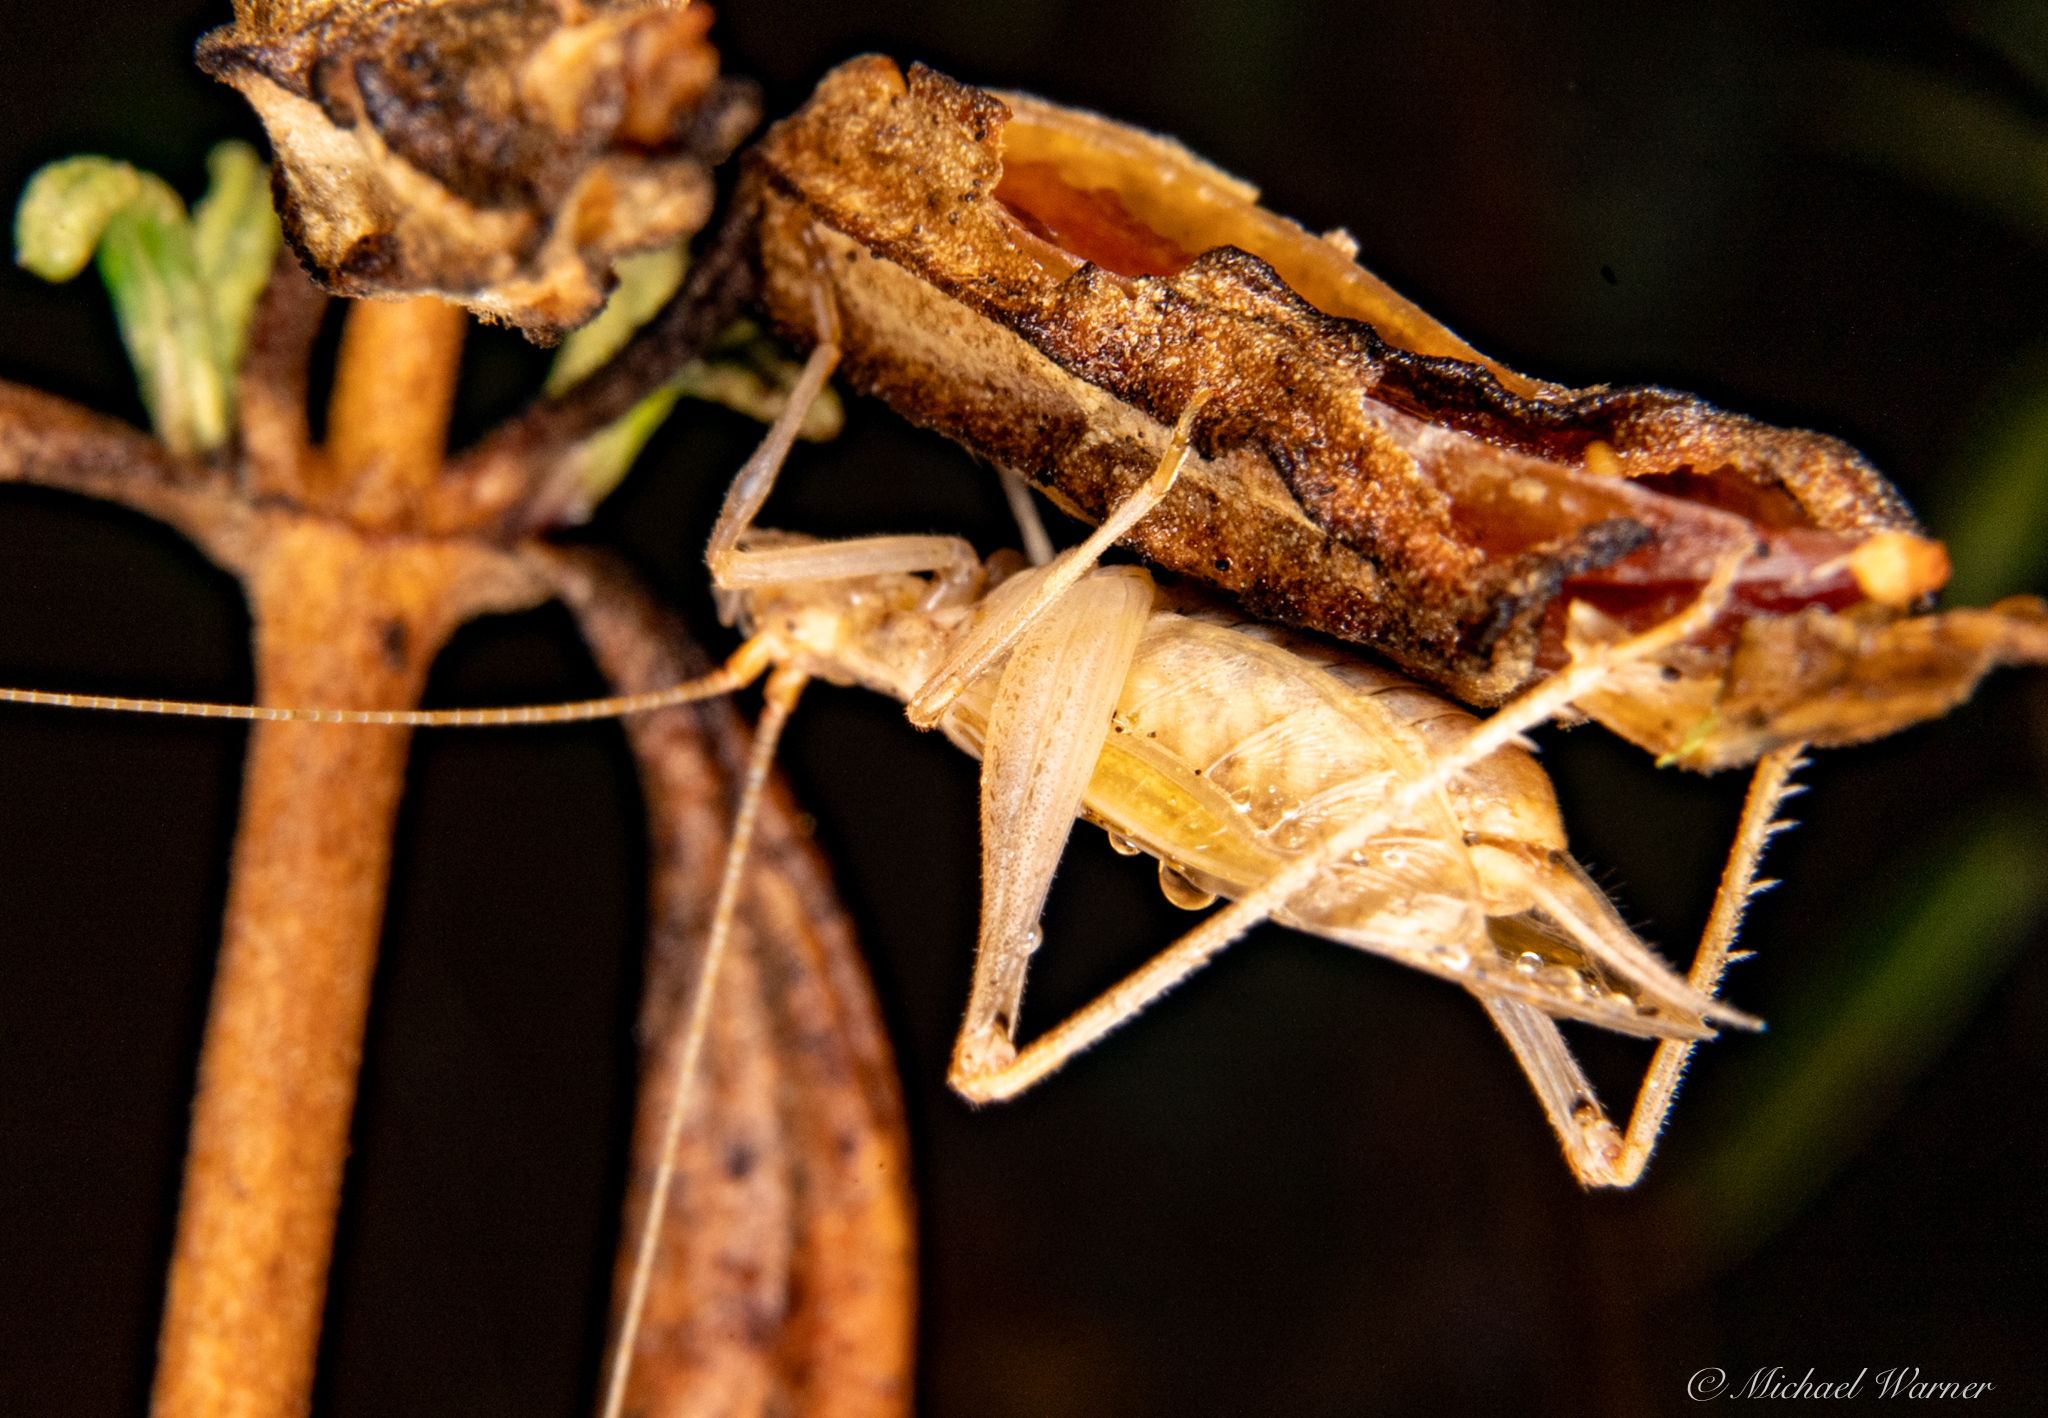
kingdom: Animalia
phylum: Arthropoda
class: Insecta
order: Orthoptera
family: Gryllidae
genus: Oecanthus
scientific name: Oecanthus californicus
